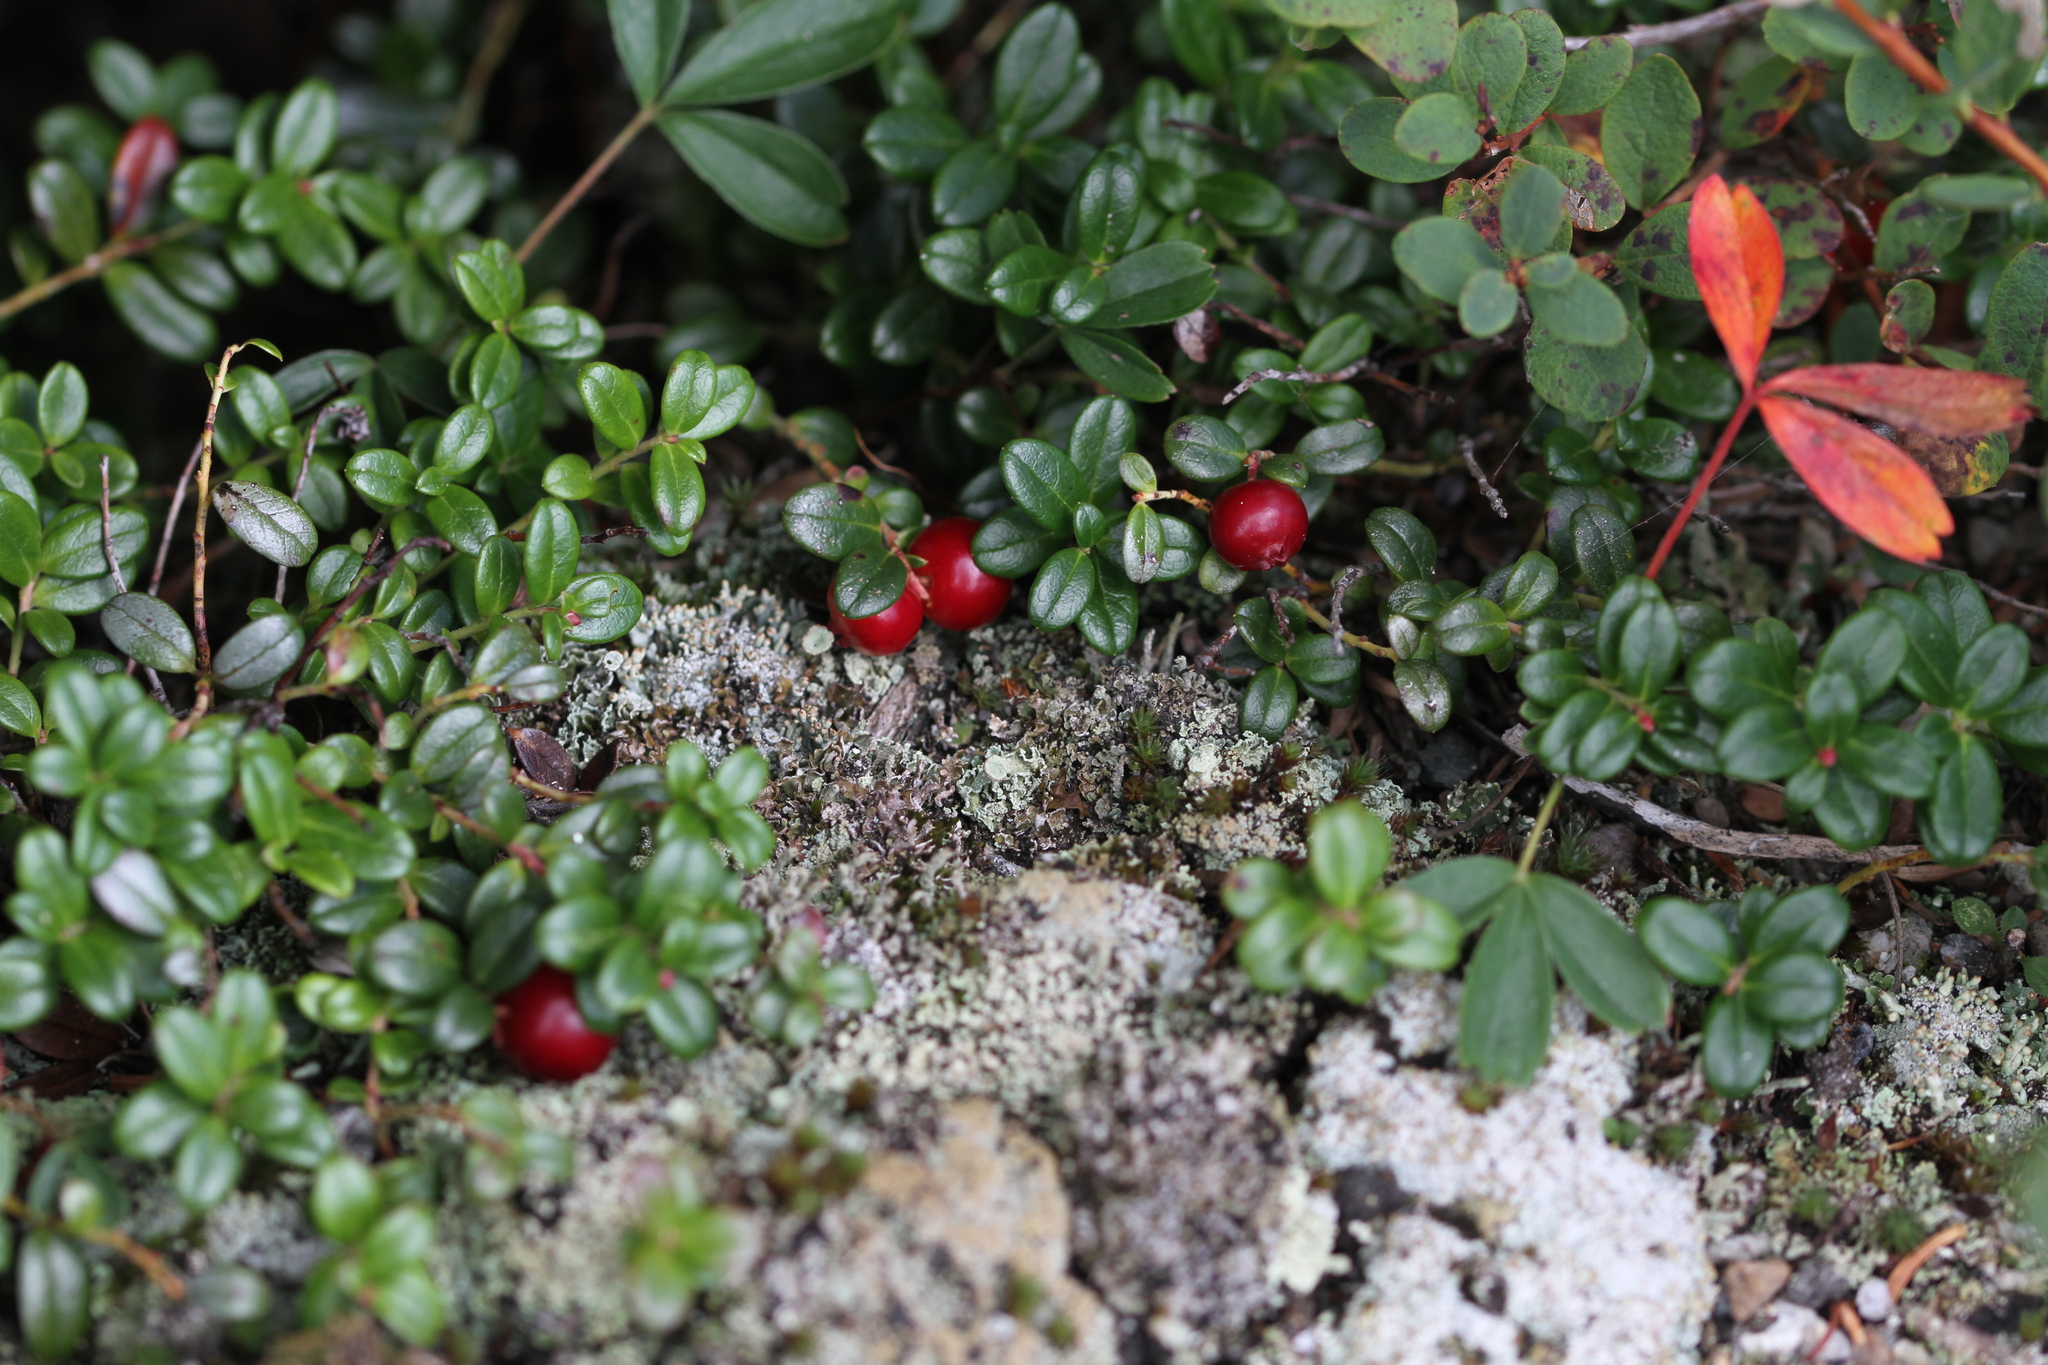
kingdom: Plantae
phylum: Tracheophyta
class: Magnoliopsida
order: Ericales
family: Ericaceae
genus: Vaccinium
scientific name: Vaccinium vitis-idaea
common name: Cowberry
